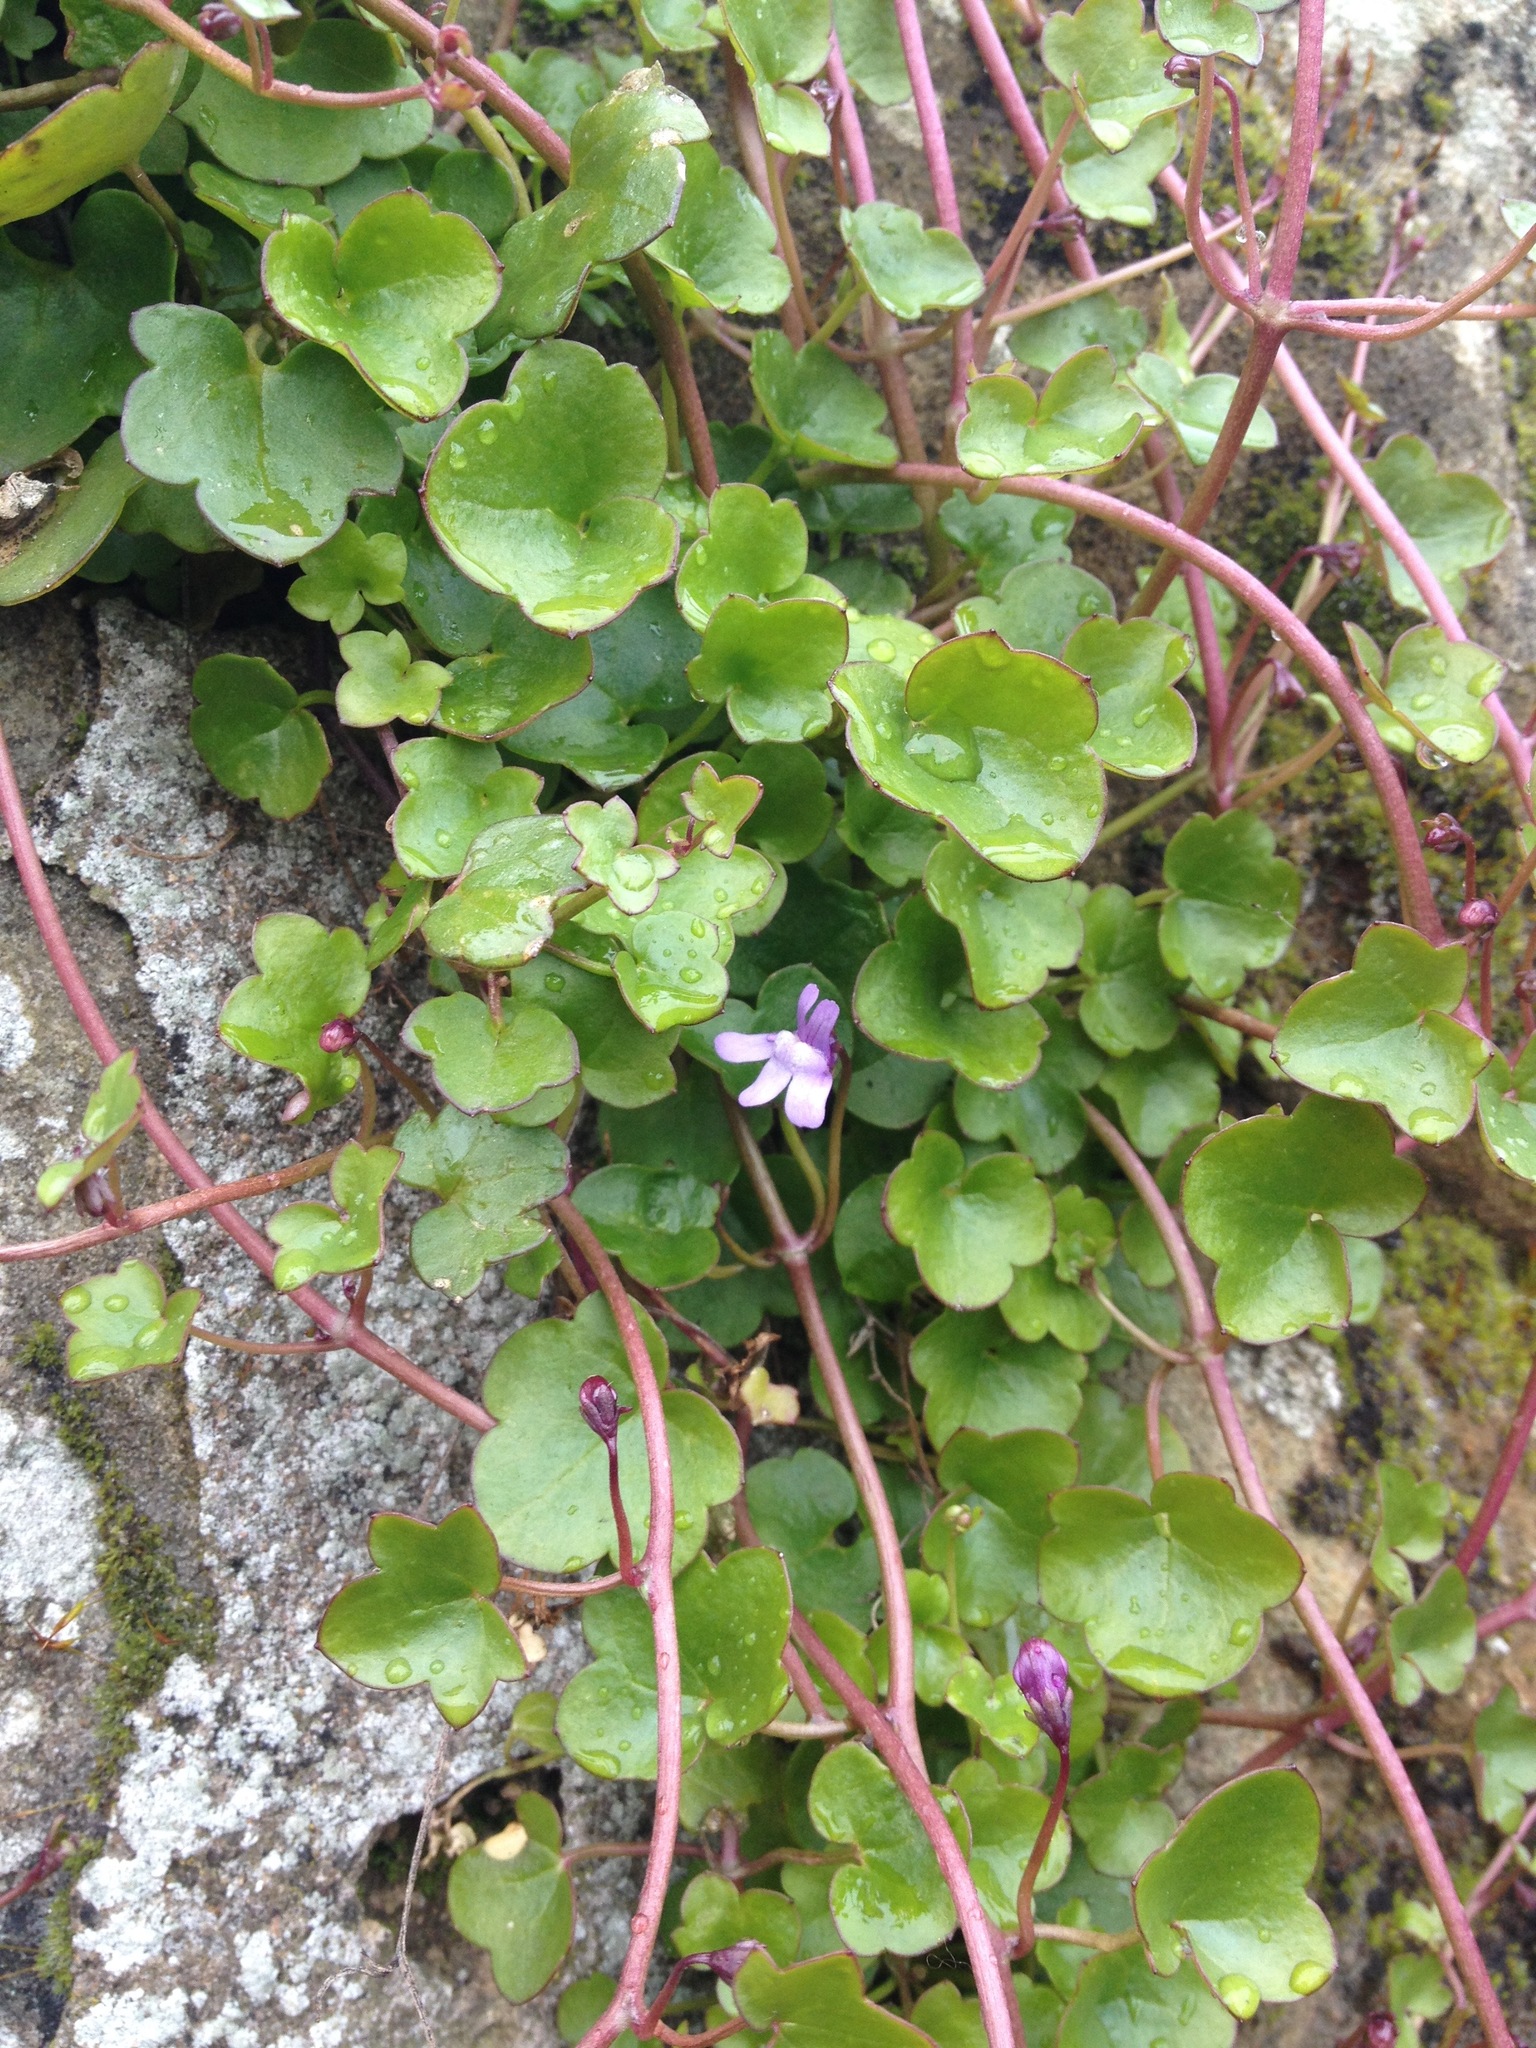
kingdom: Plantae
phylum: Tracheophyta
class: Magnoliopsida
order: Lamiales
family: Plantaginaceae
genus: Cymbalaria
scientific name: Cymbalaria muralis
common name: Ivy-leaved toadflax
